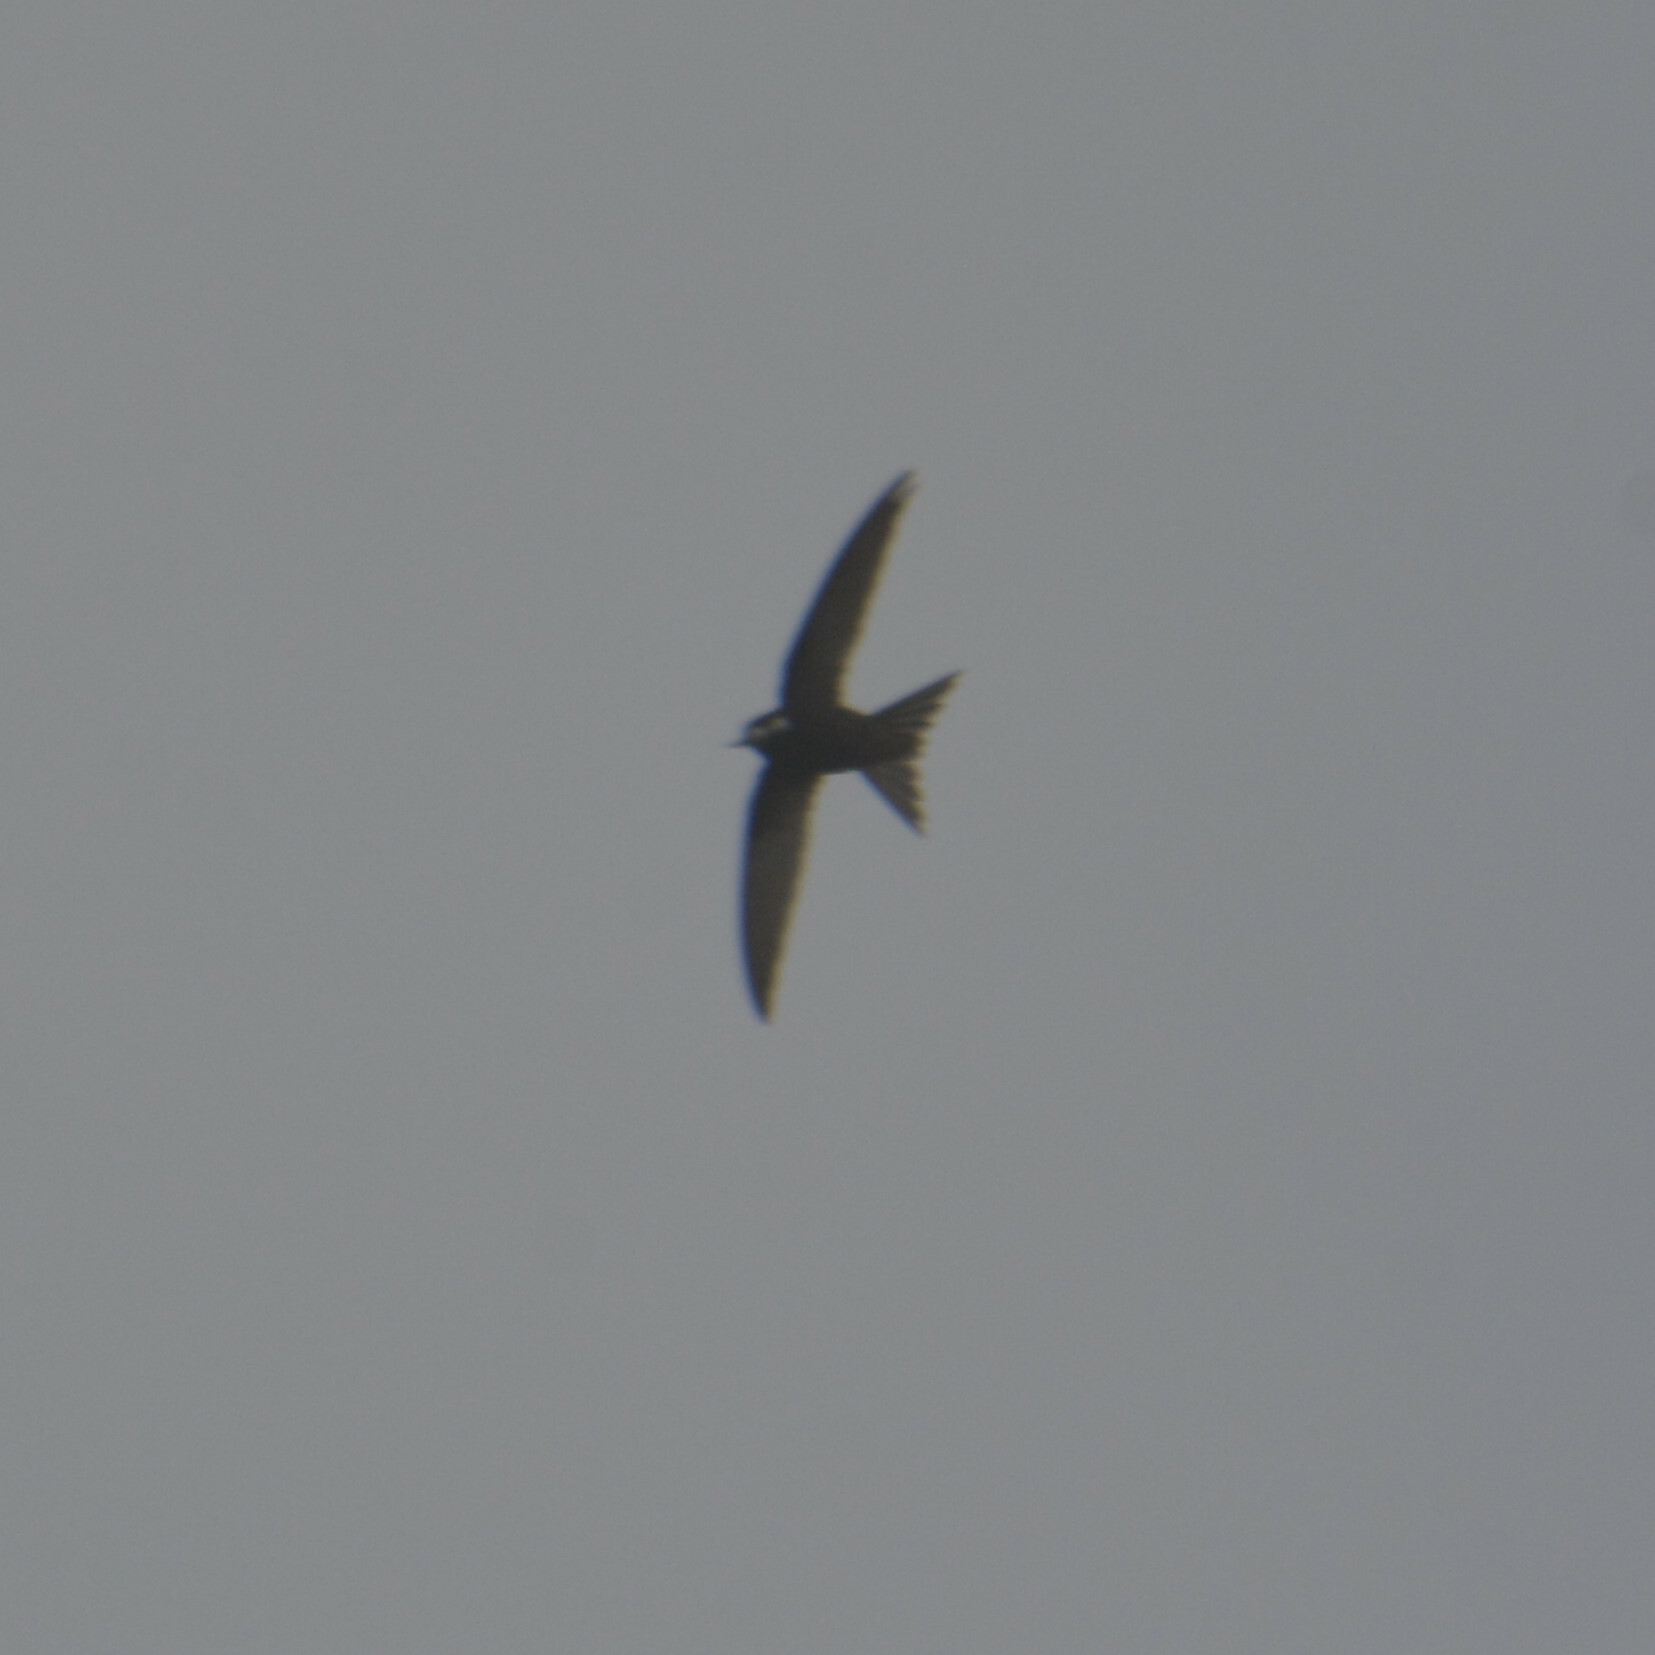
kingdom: Animalia
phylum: Chordata
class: Aves
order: Apodiformes
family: Apodidae
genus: Apus
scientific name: Apus apus
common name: Common swift
